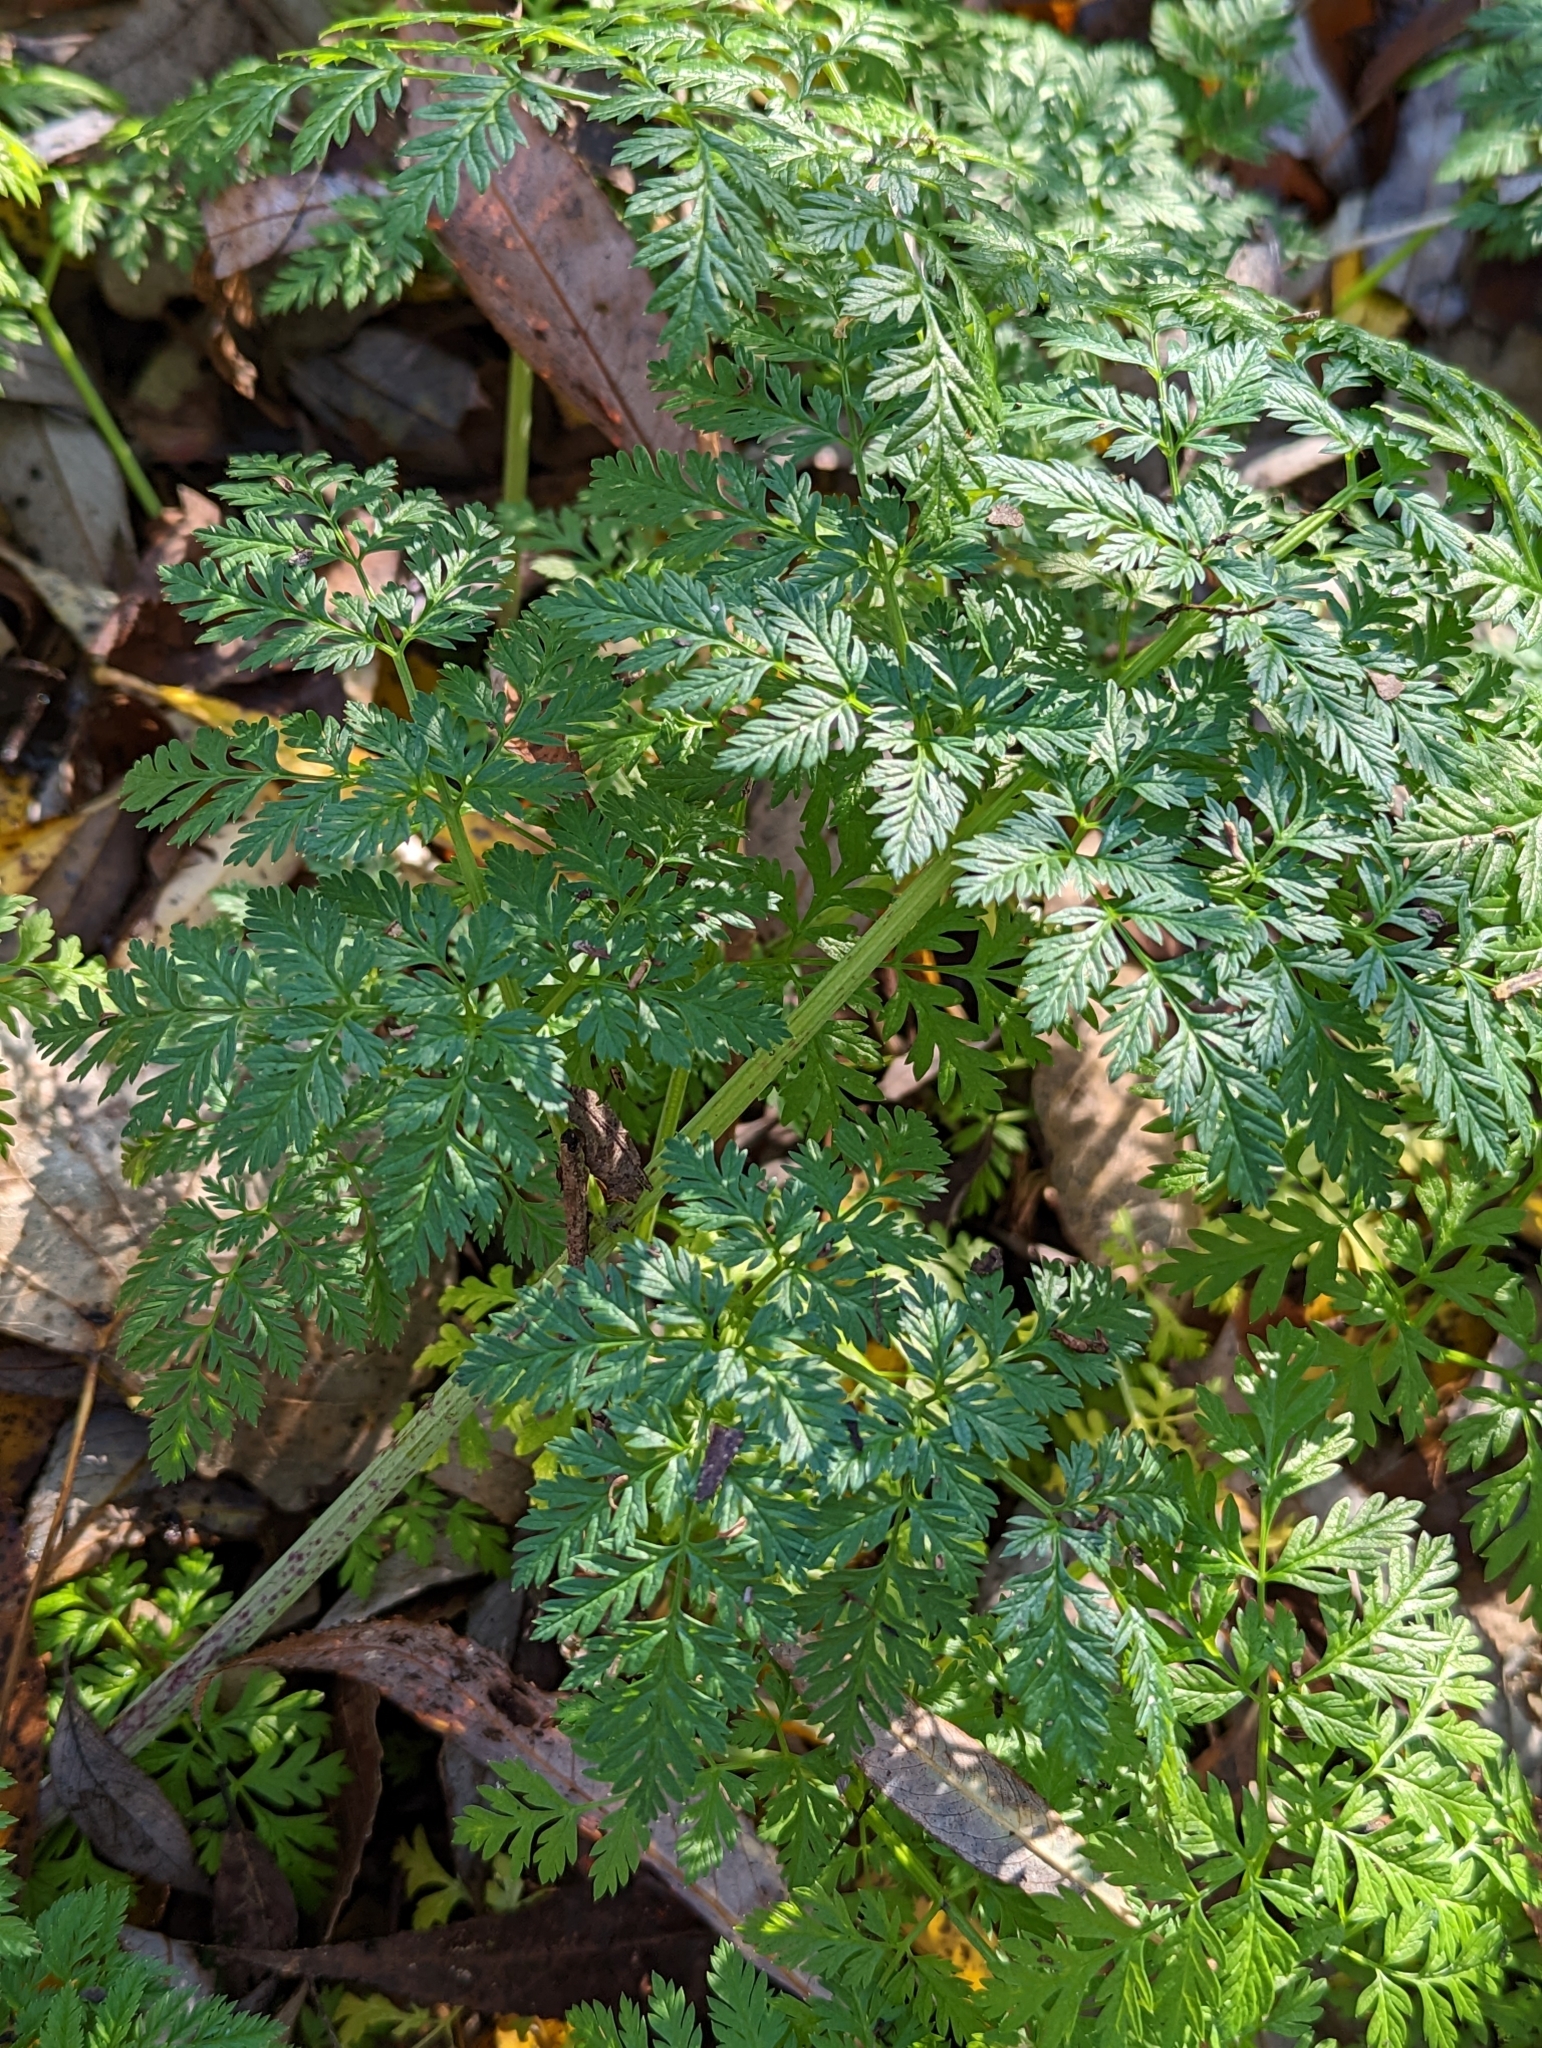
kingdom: Plantae
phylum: Tracheophyta
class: Magnoliopsida
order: Apiales
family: Apiaceae
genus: Conium
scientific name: Conium maculatum
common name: Hemlock
